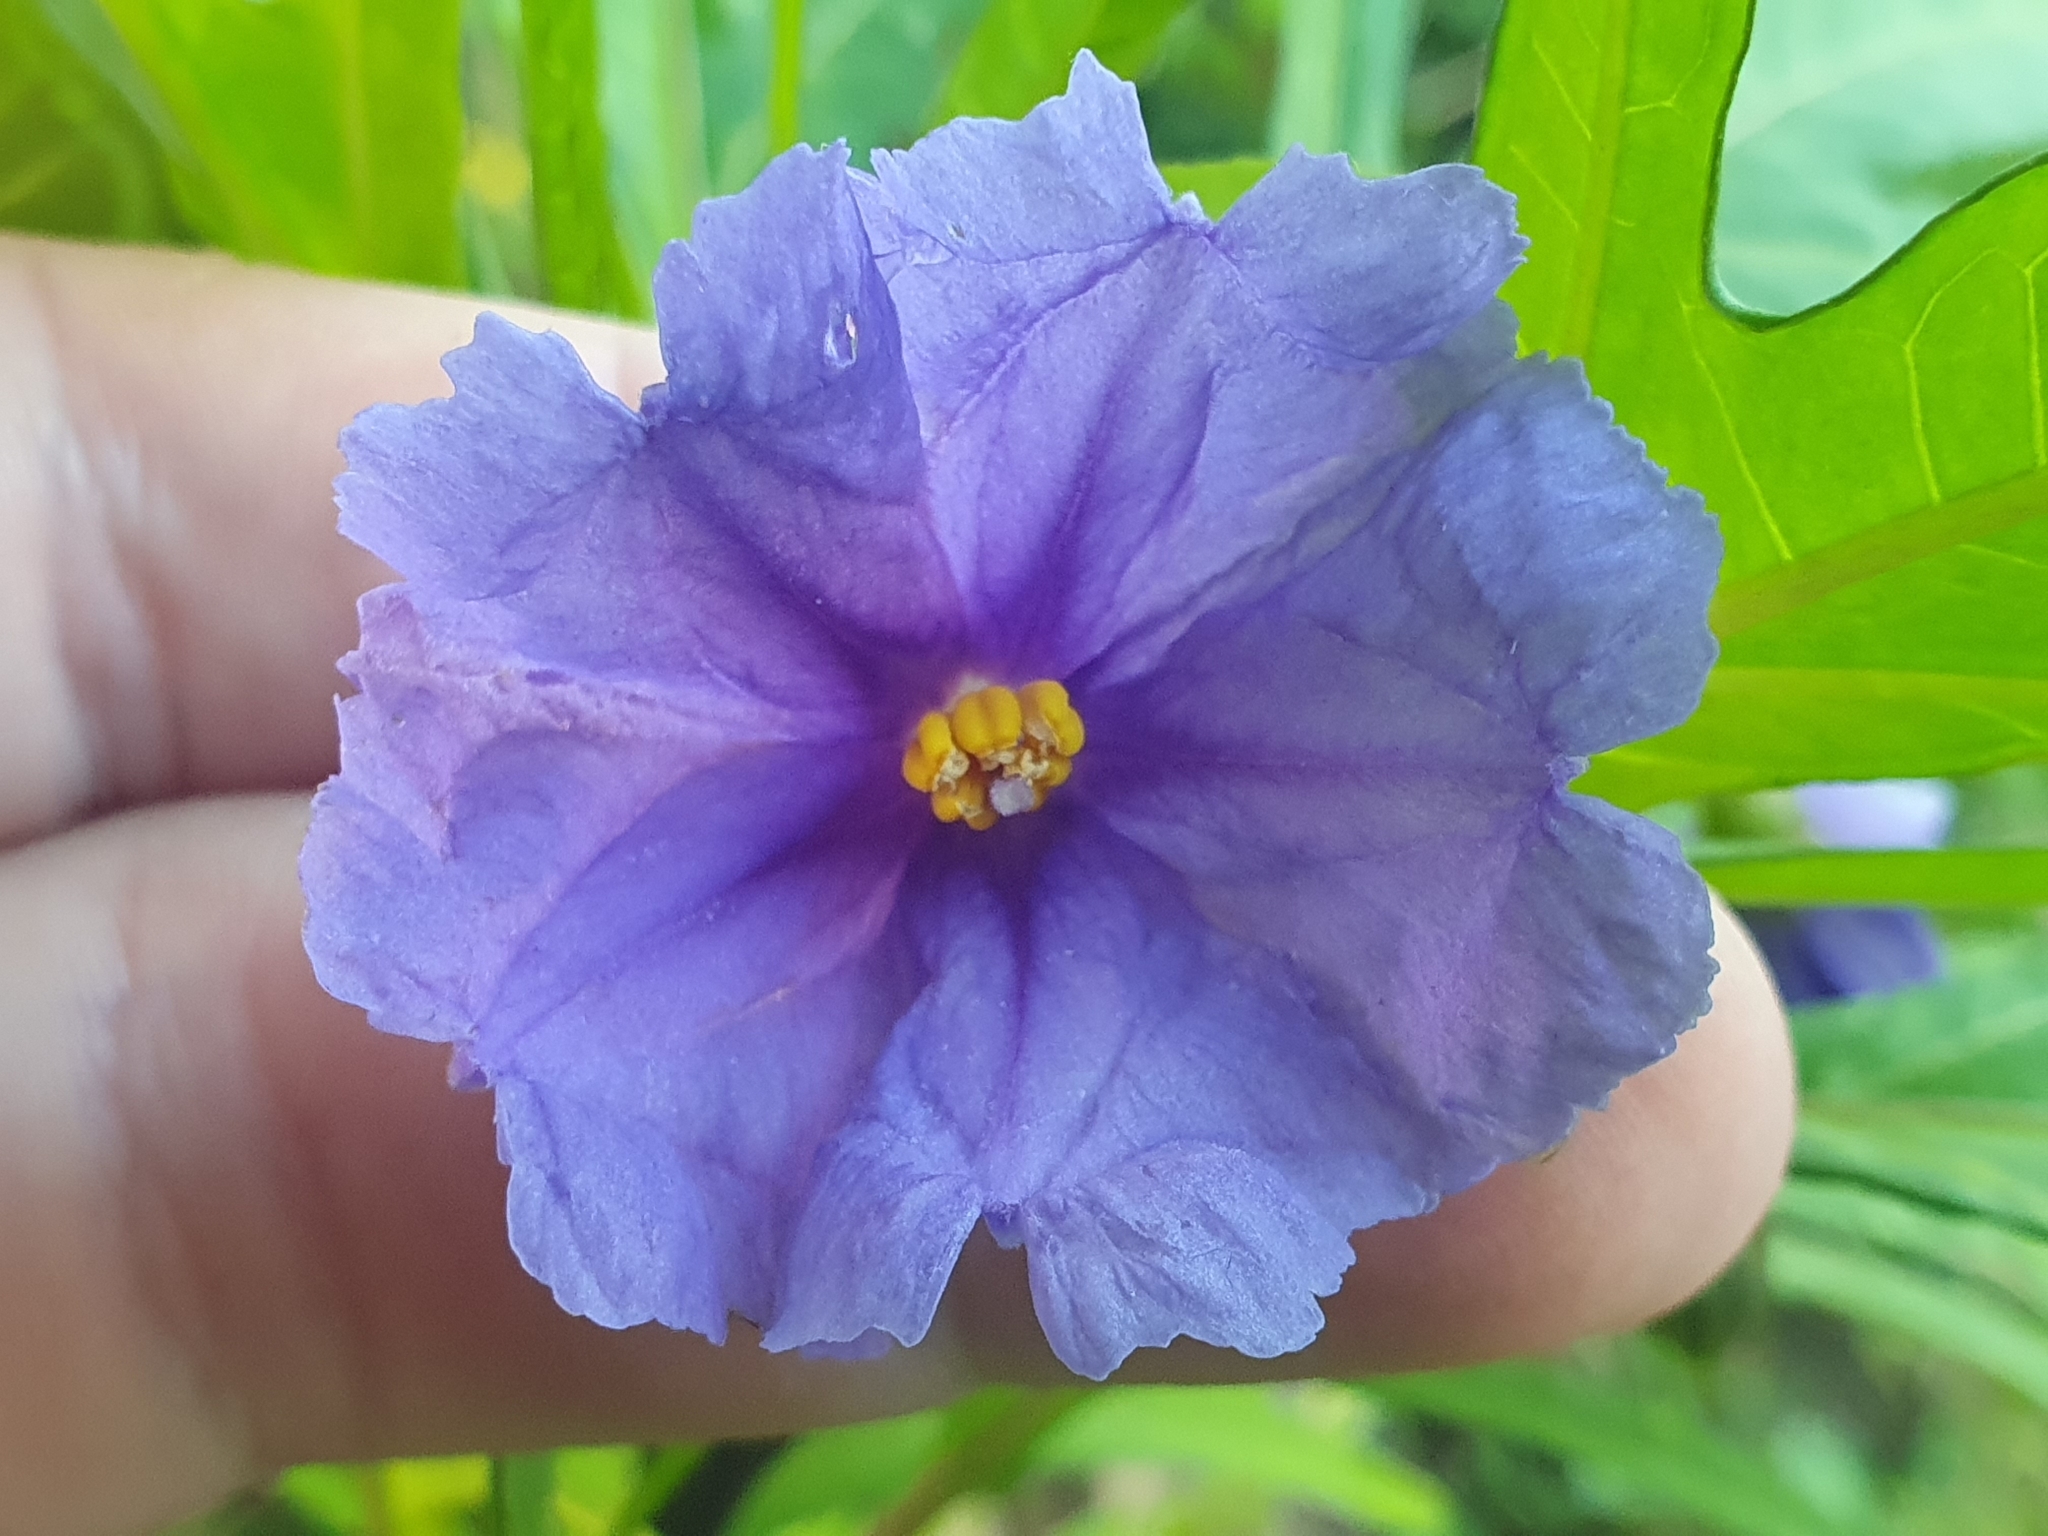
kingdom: Plantae
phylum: Tracheophyta
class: Magnoliopsida
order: Solanales
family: Solanaceae
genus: Solanum
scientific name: Solanum laciniatum
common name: Kangaroo-apple
